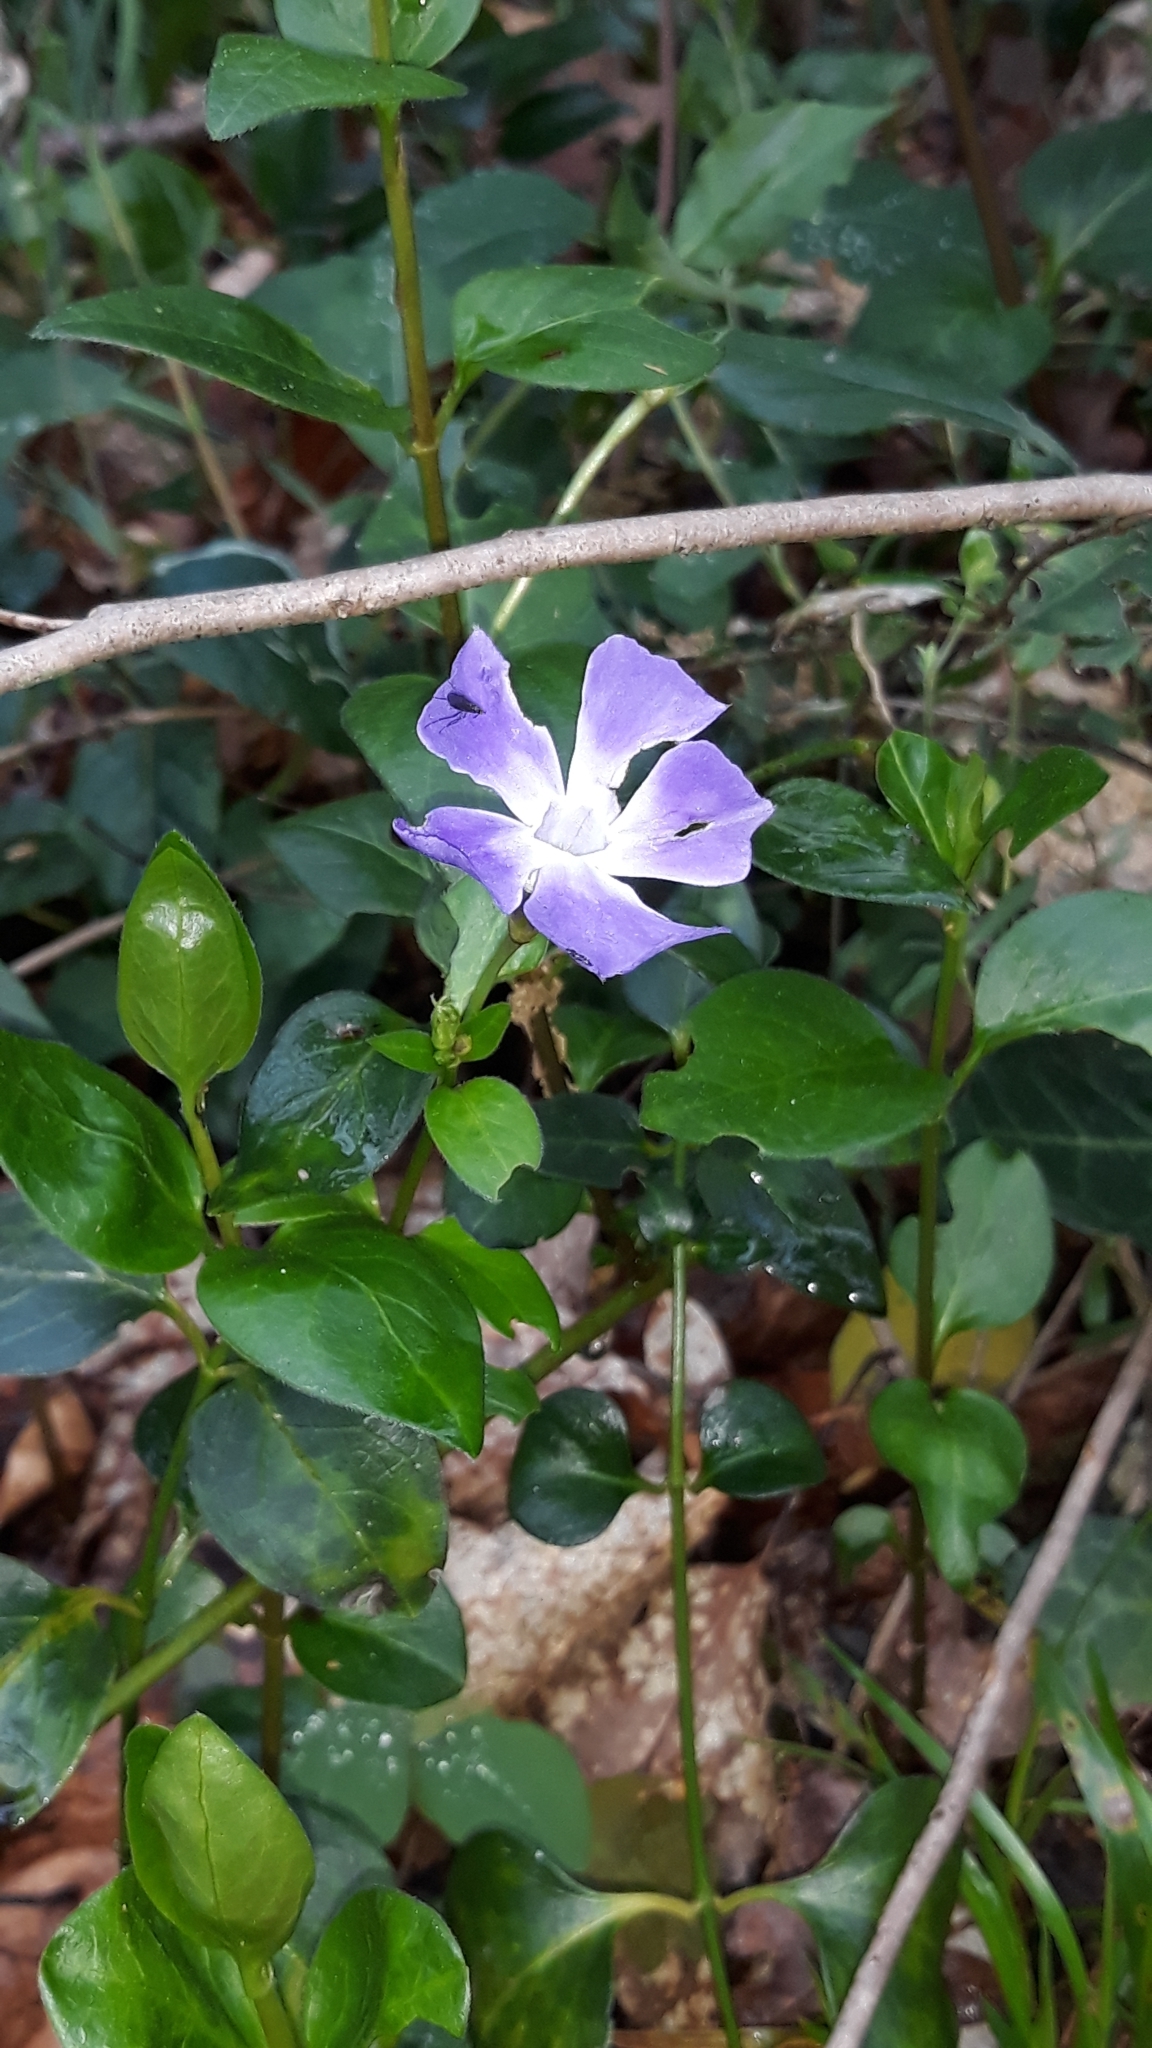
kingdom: Plantae
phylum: Tracheophyta
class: Magnoliopsida
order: Gentianales
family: Apocynaceae
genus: Vinca
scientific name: Vinca major
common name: Greater periwinkle
